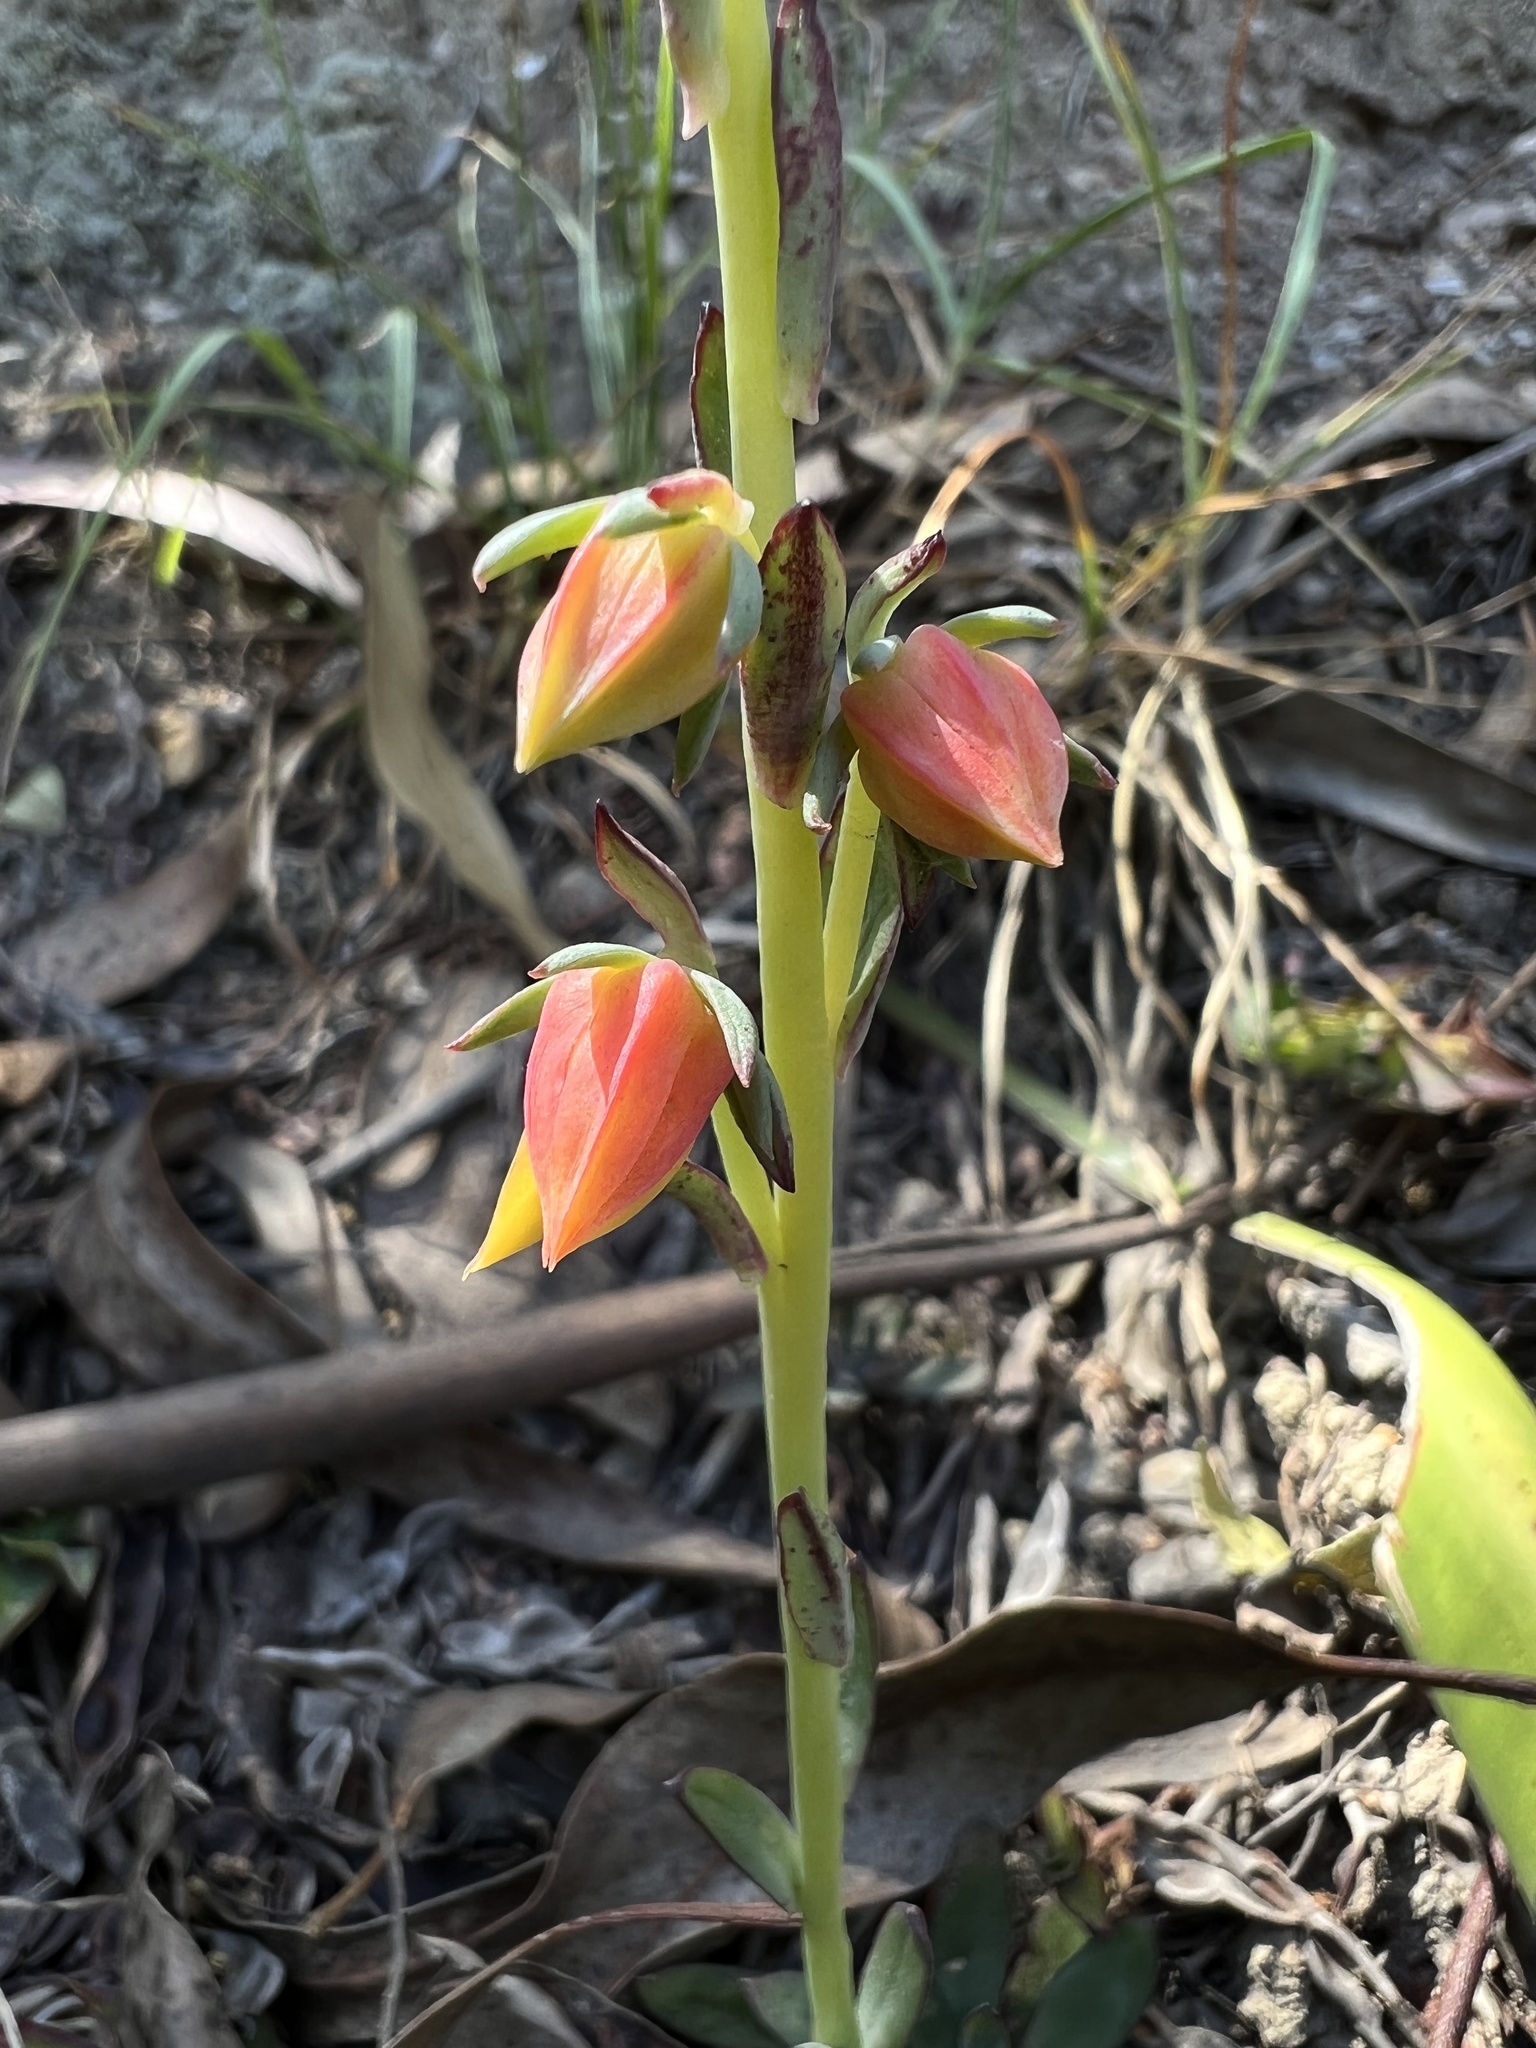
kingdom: Plantae
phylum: Tracheophyta
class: Magnoliopsida
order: Saxifragales
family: Crassulaceae
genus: Echeveria
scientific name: Echeveria bicolor
